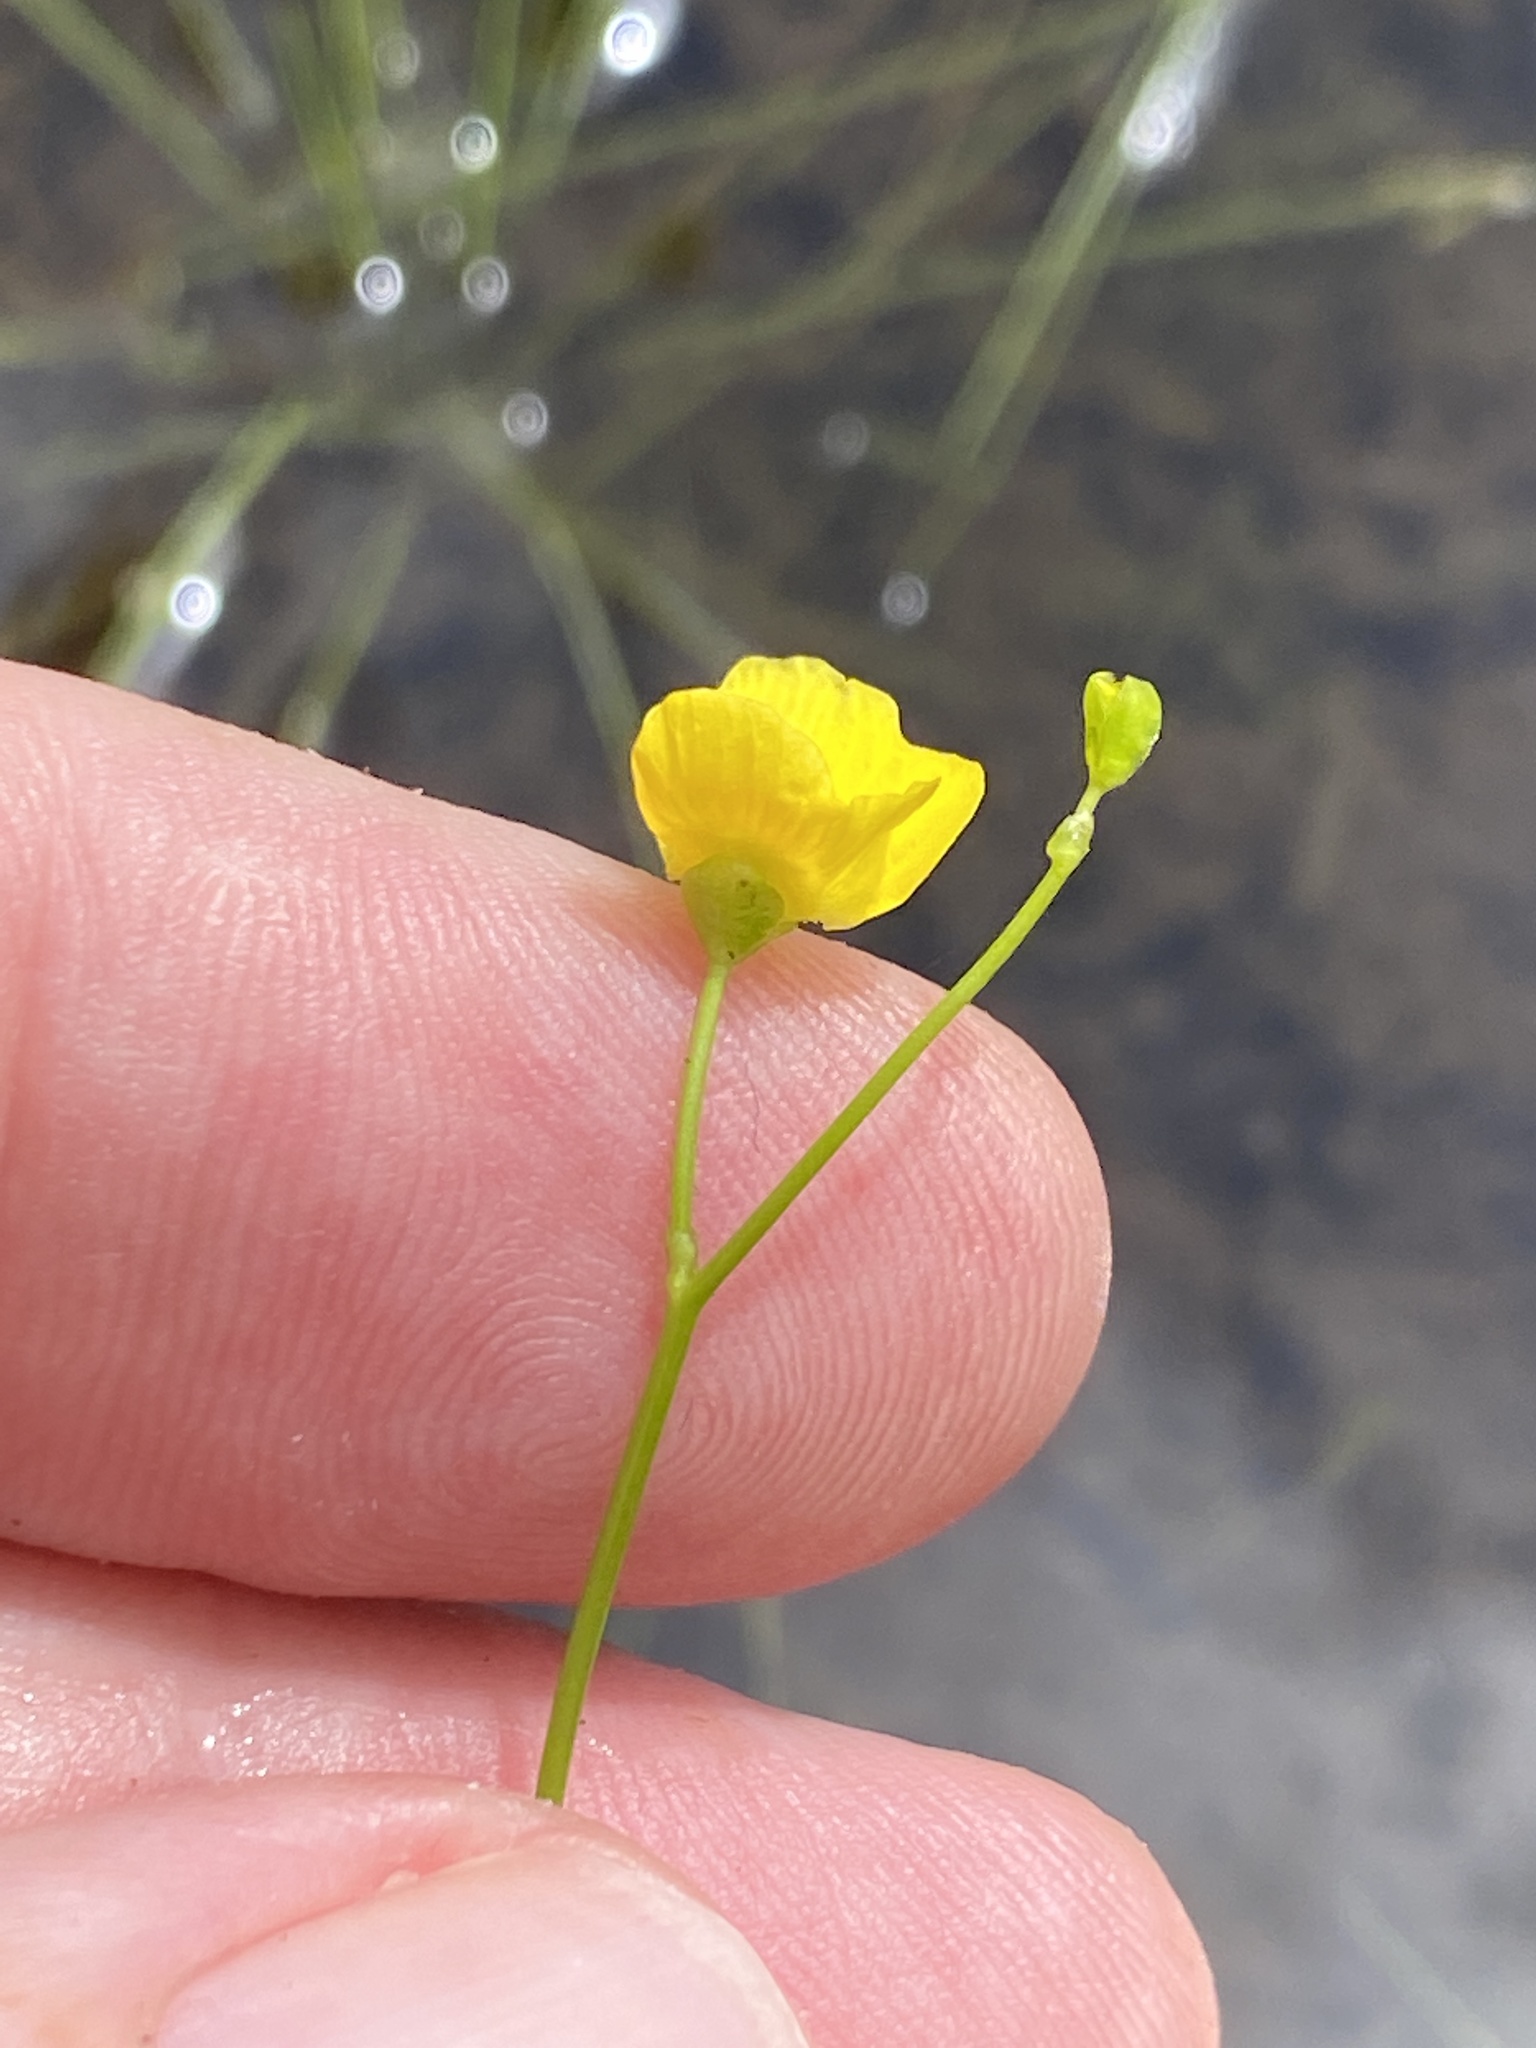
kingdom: Plantae
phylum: Tracheophyta
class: Magnoliopsida
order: Lamiales
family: Lentibulariaceae
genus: Utricularia
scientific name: Utricularia gibba
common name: Humped bladderwort
